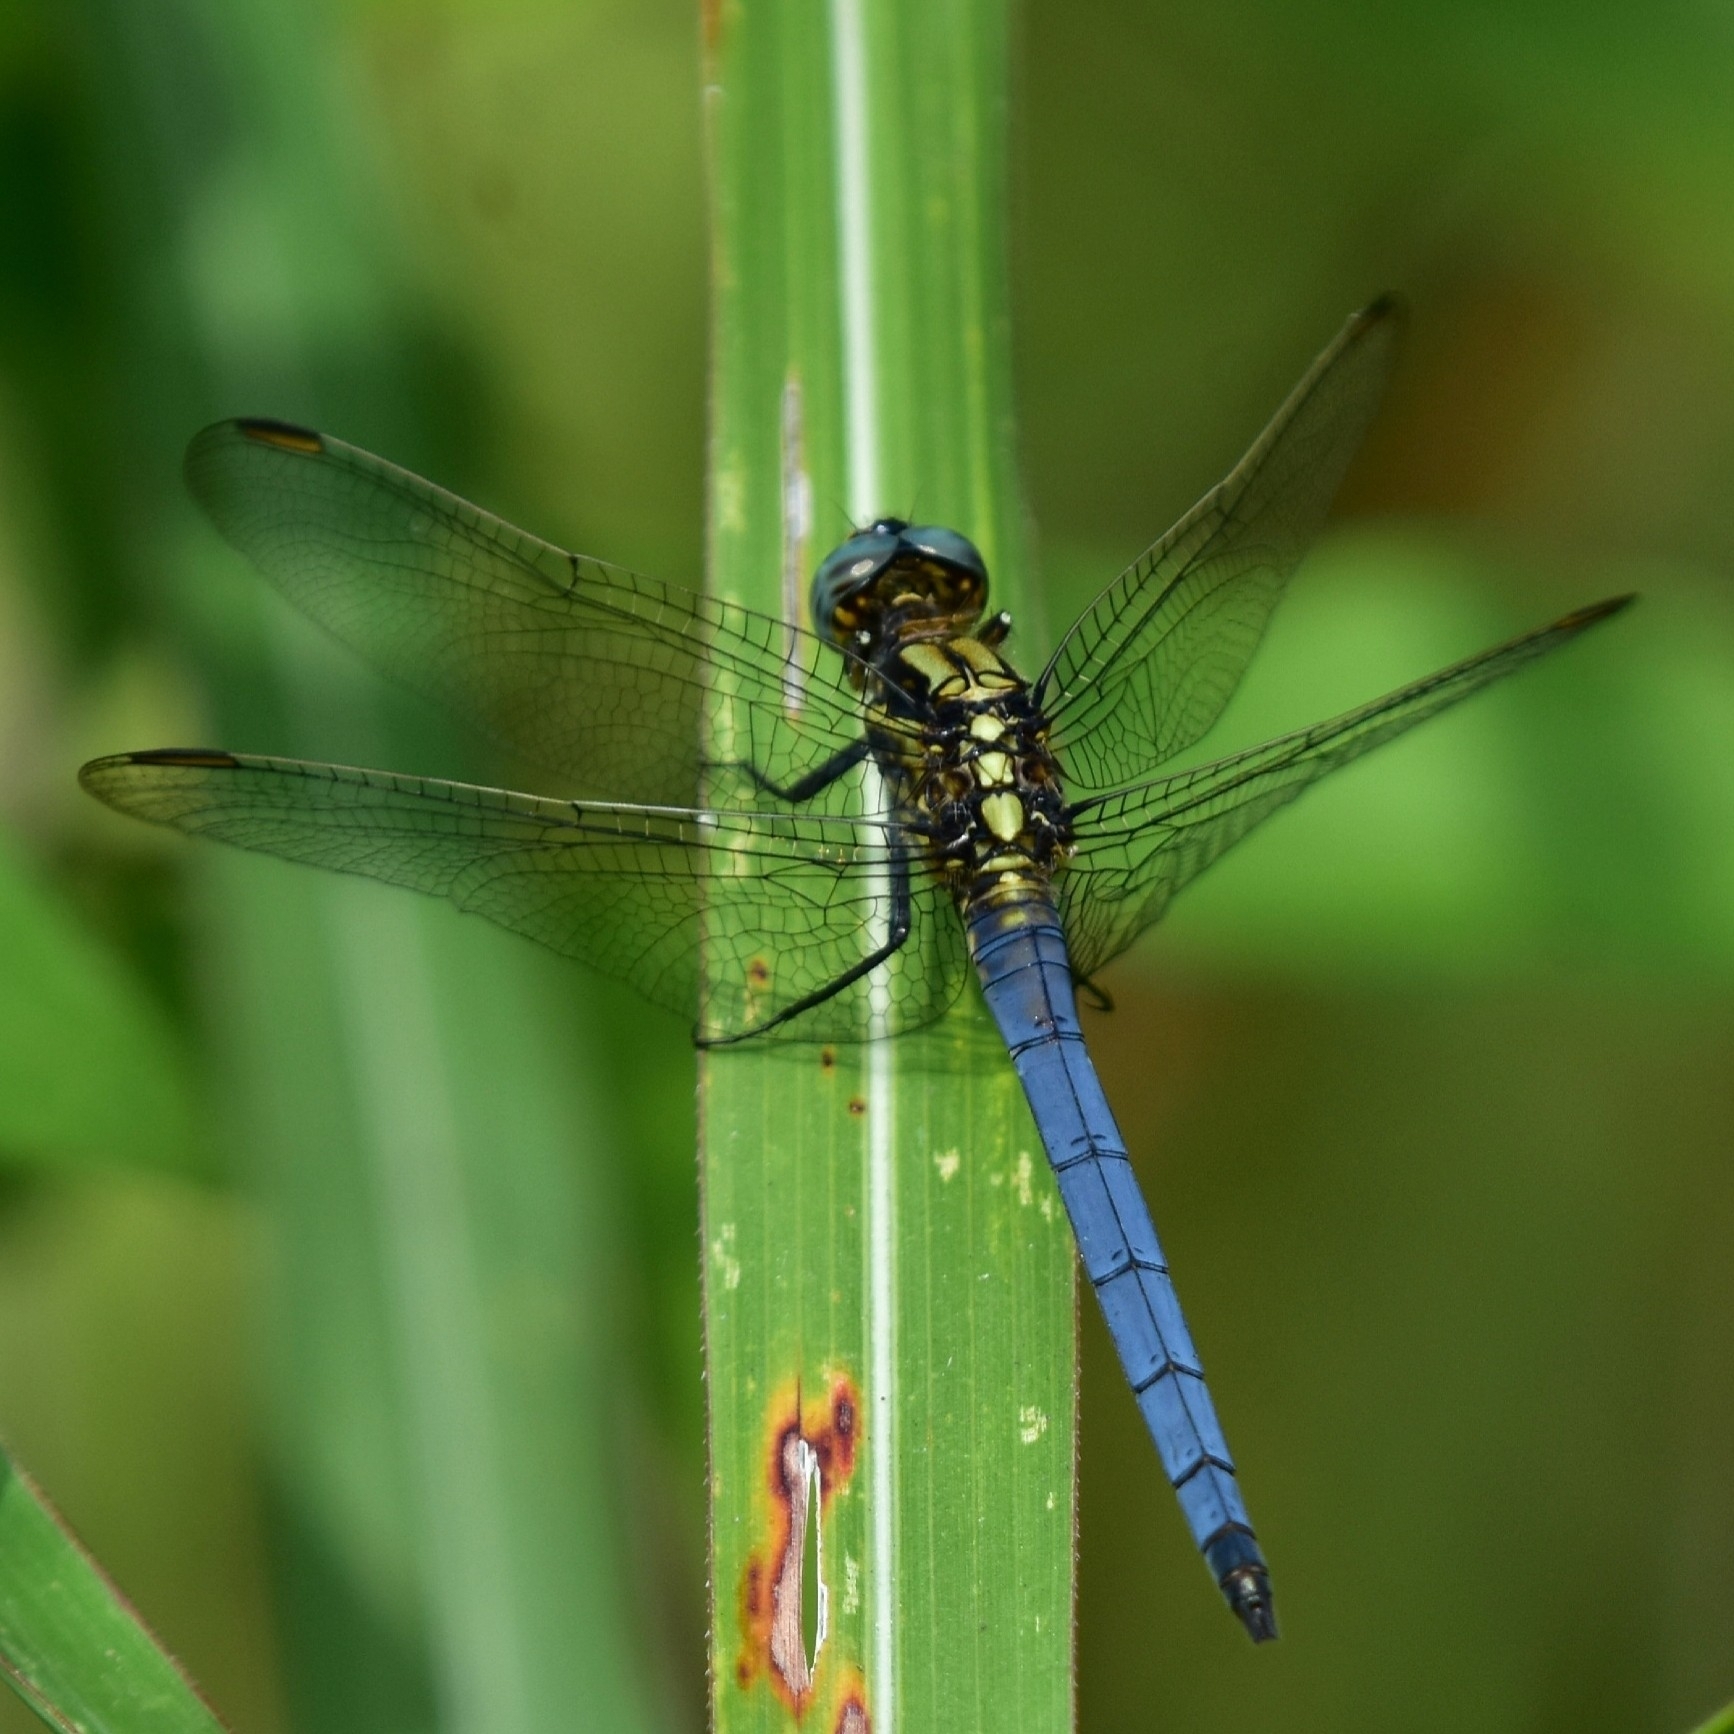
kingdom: Animalia
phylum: Arthropoda
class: Insecta
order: Odonata
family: Libellulidae
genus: Orthetrum
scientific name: Orthetrum luzonicum
